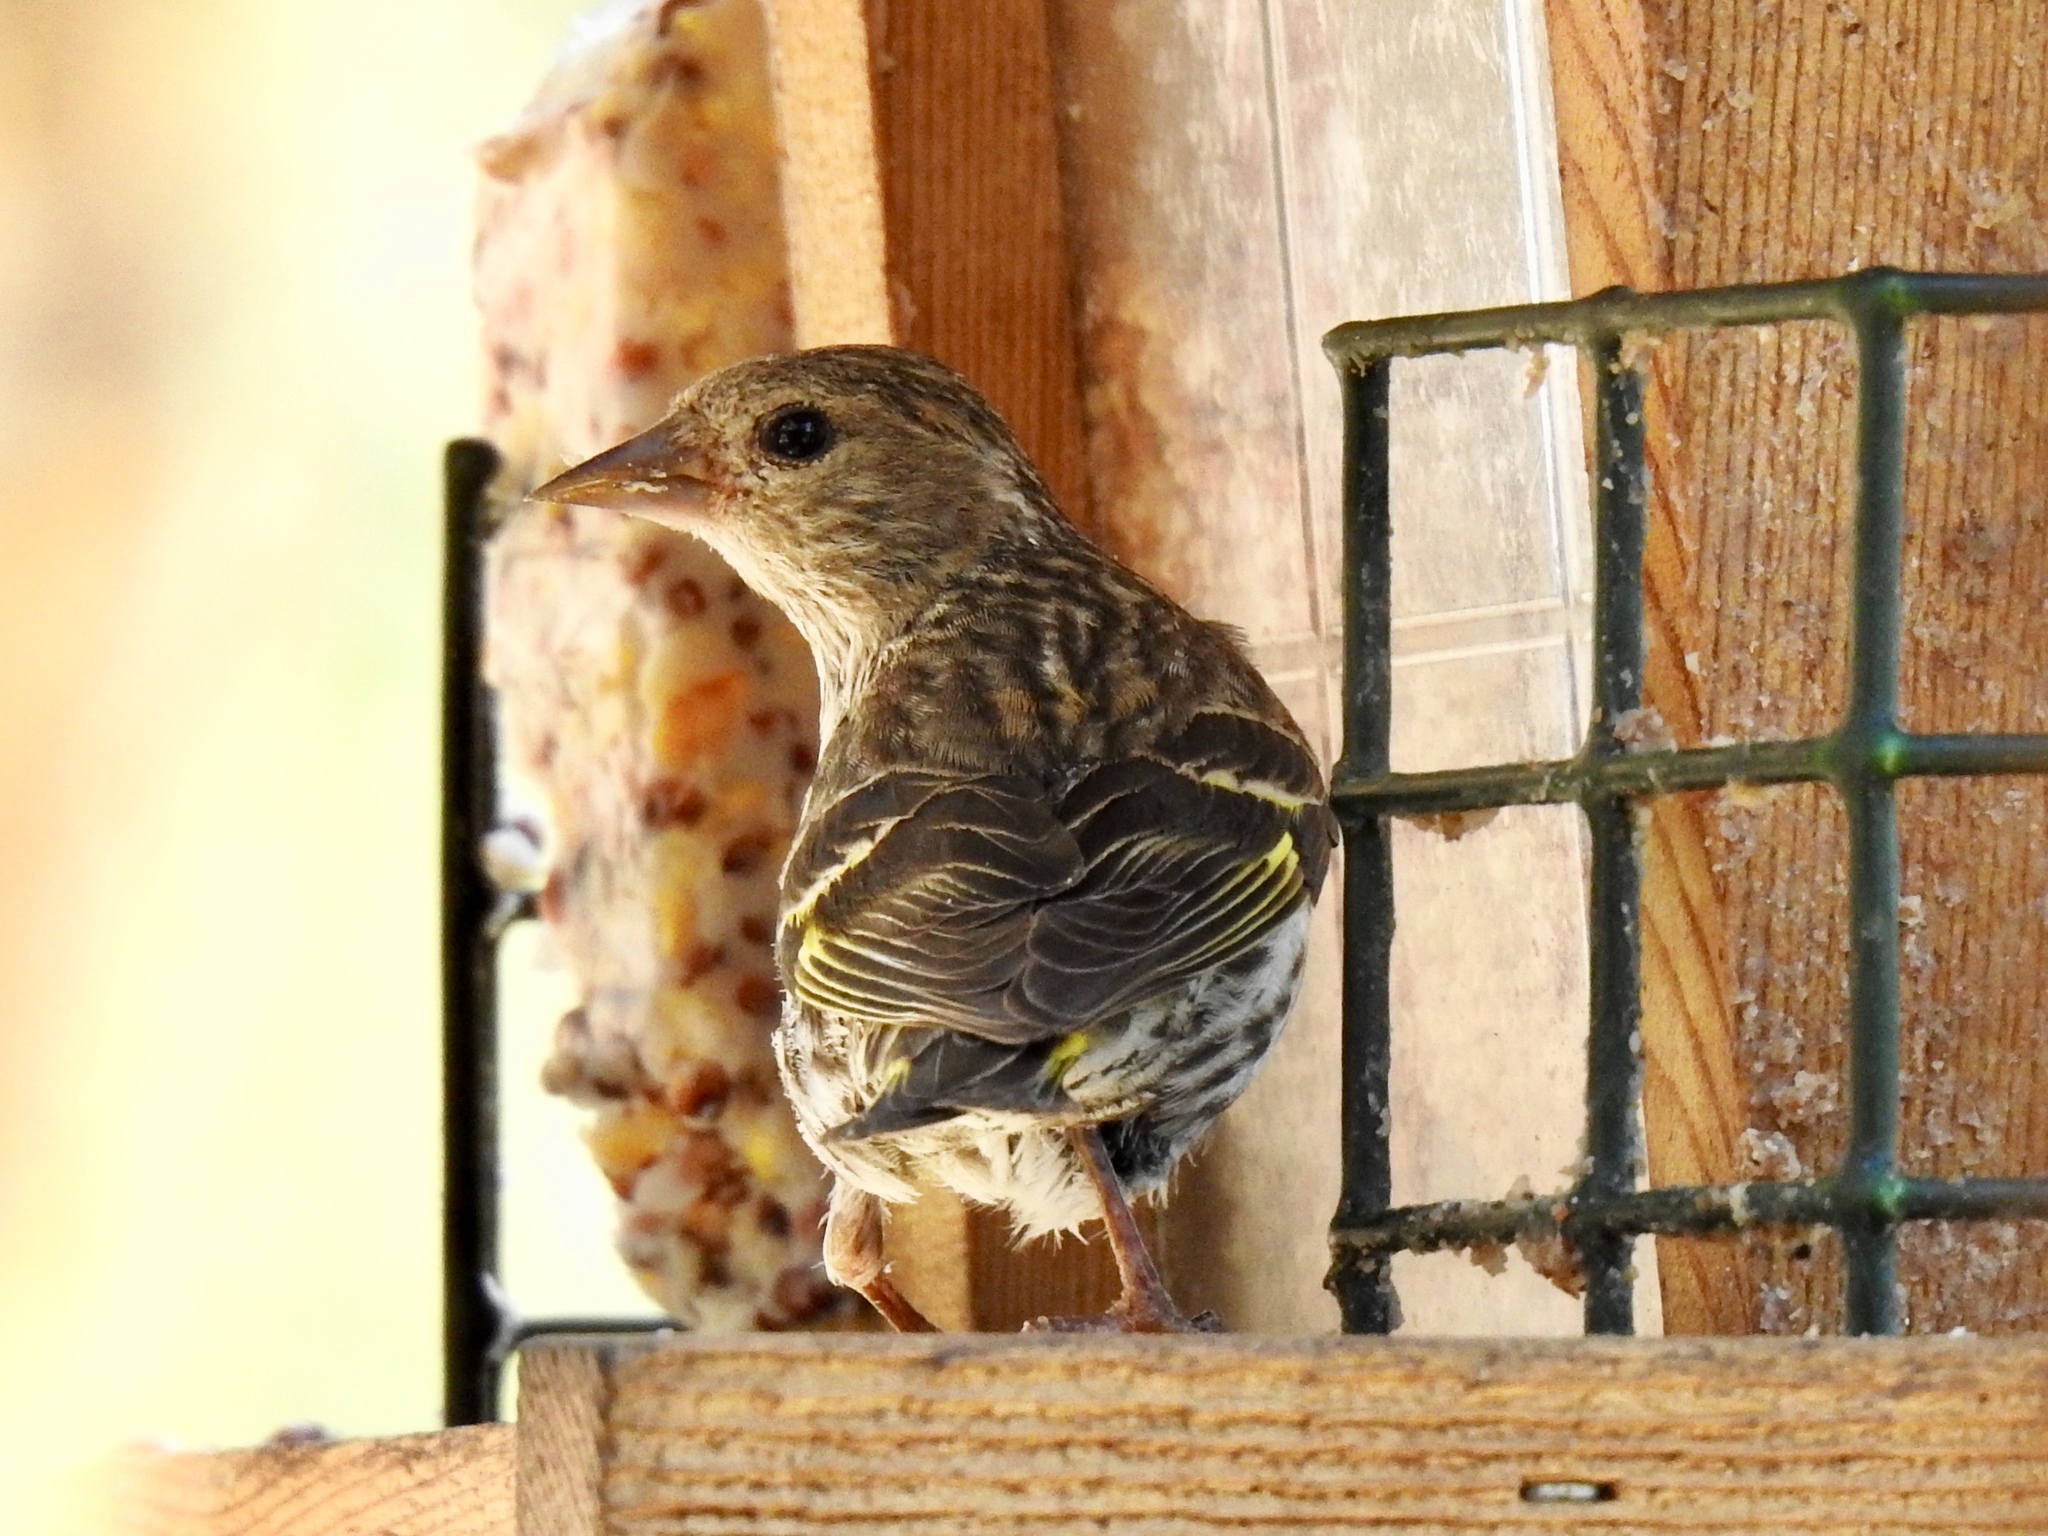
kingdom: Animalia
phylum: Chordata
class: Aves
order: Passeriformes
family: Fringillidae
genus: Spinus
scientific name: Spinus pinus
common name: Pine siskin
